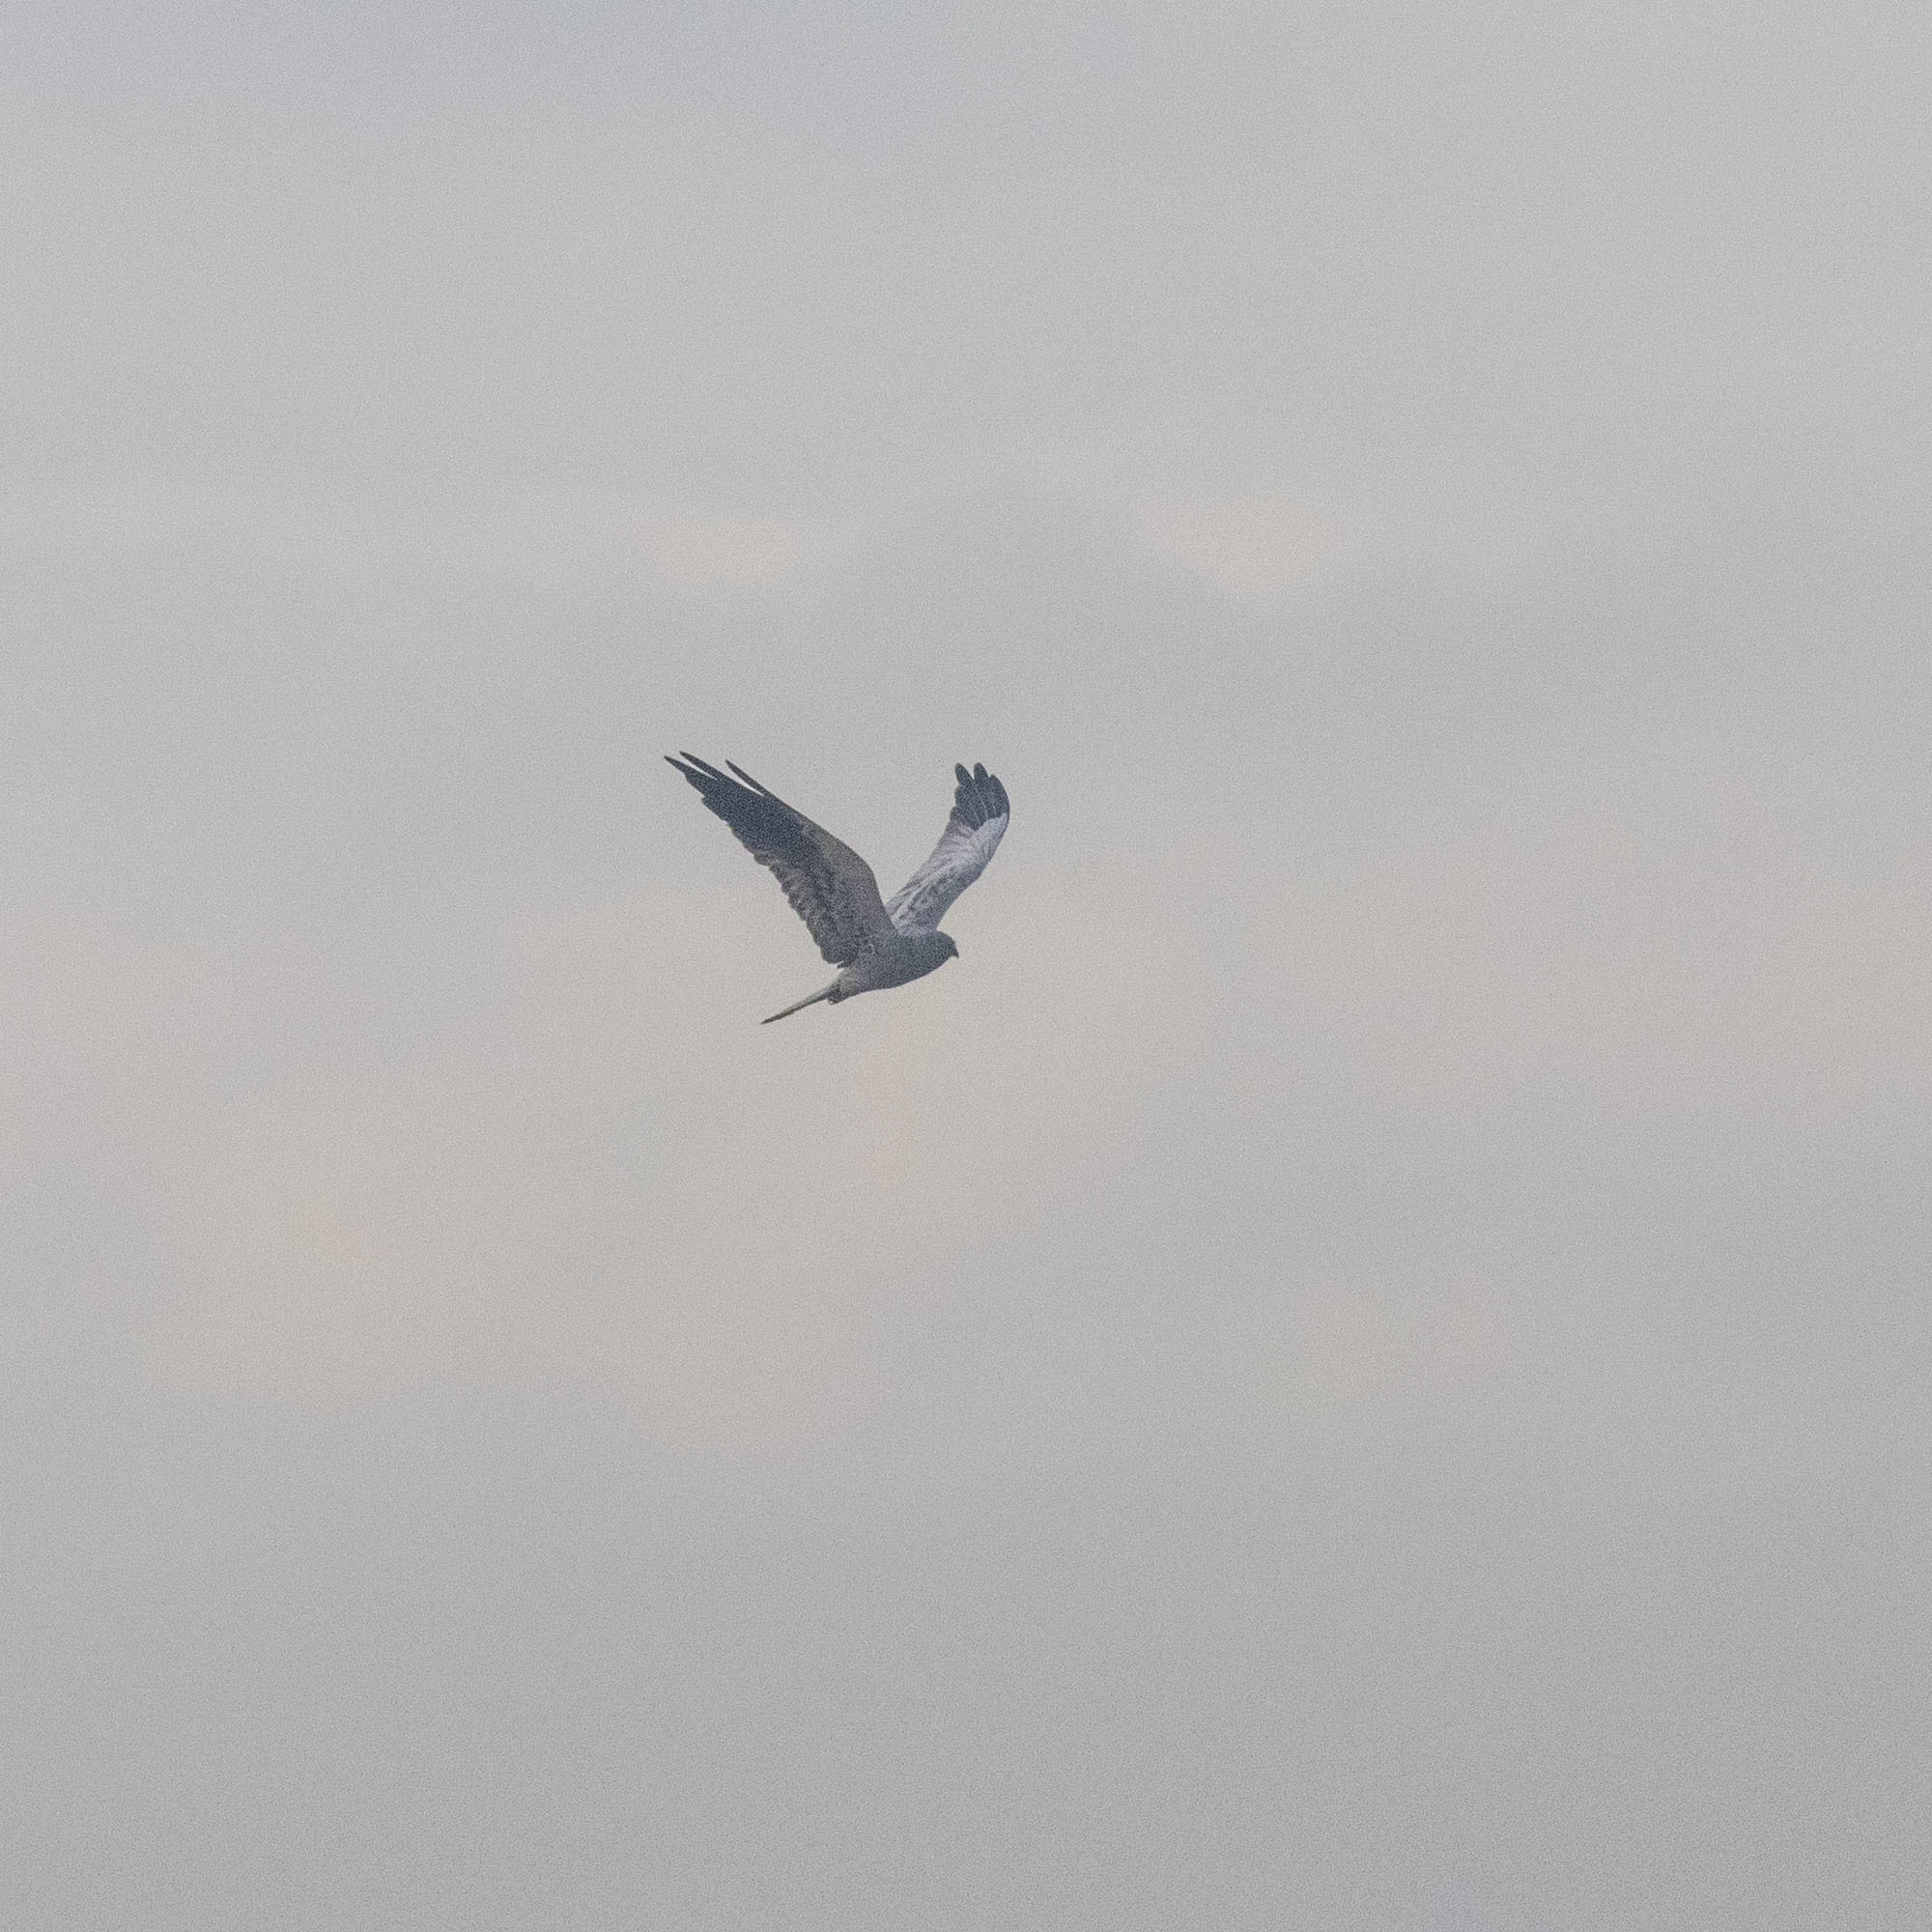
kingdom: Animalia
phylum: Chordata
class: Aves
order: Accipitriformes
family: Accipitridae
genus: Circus
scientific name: Circus pygargus
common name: Montagu's harrier
